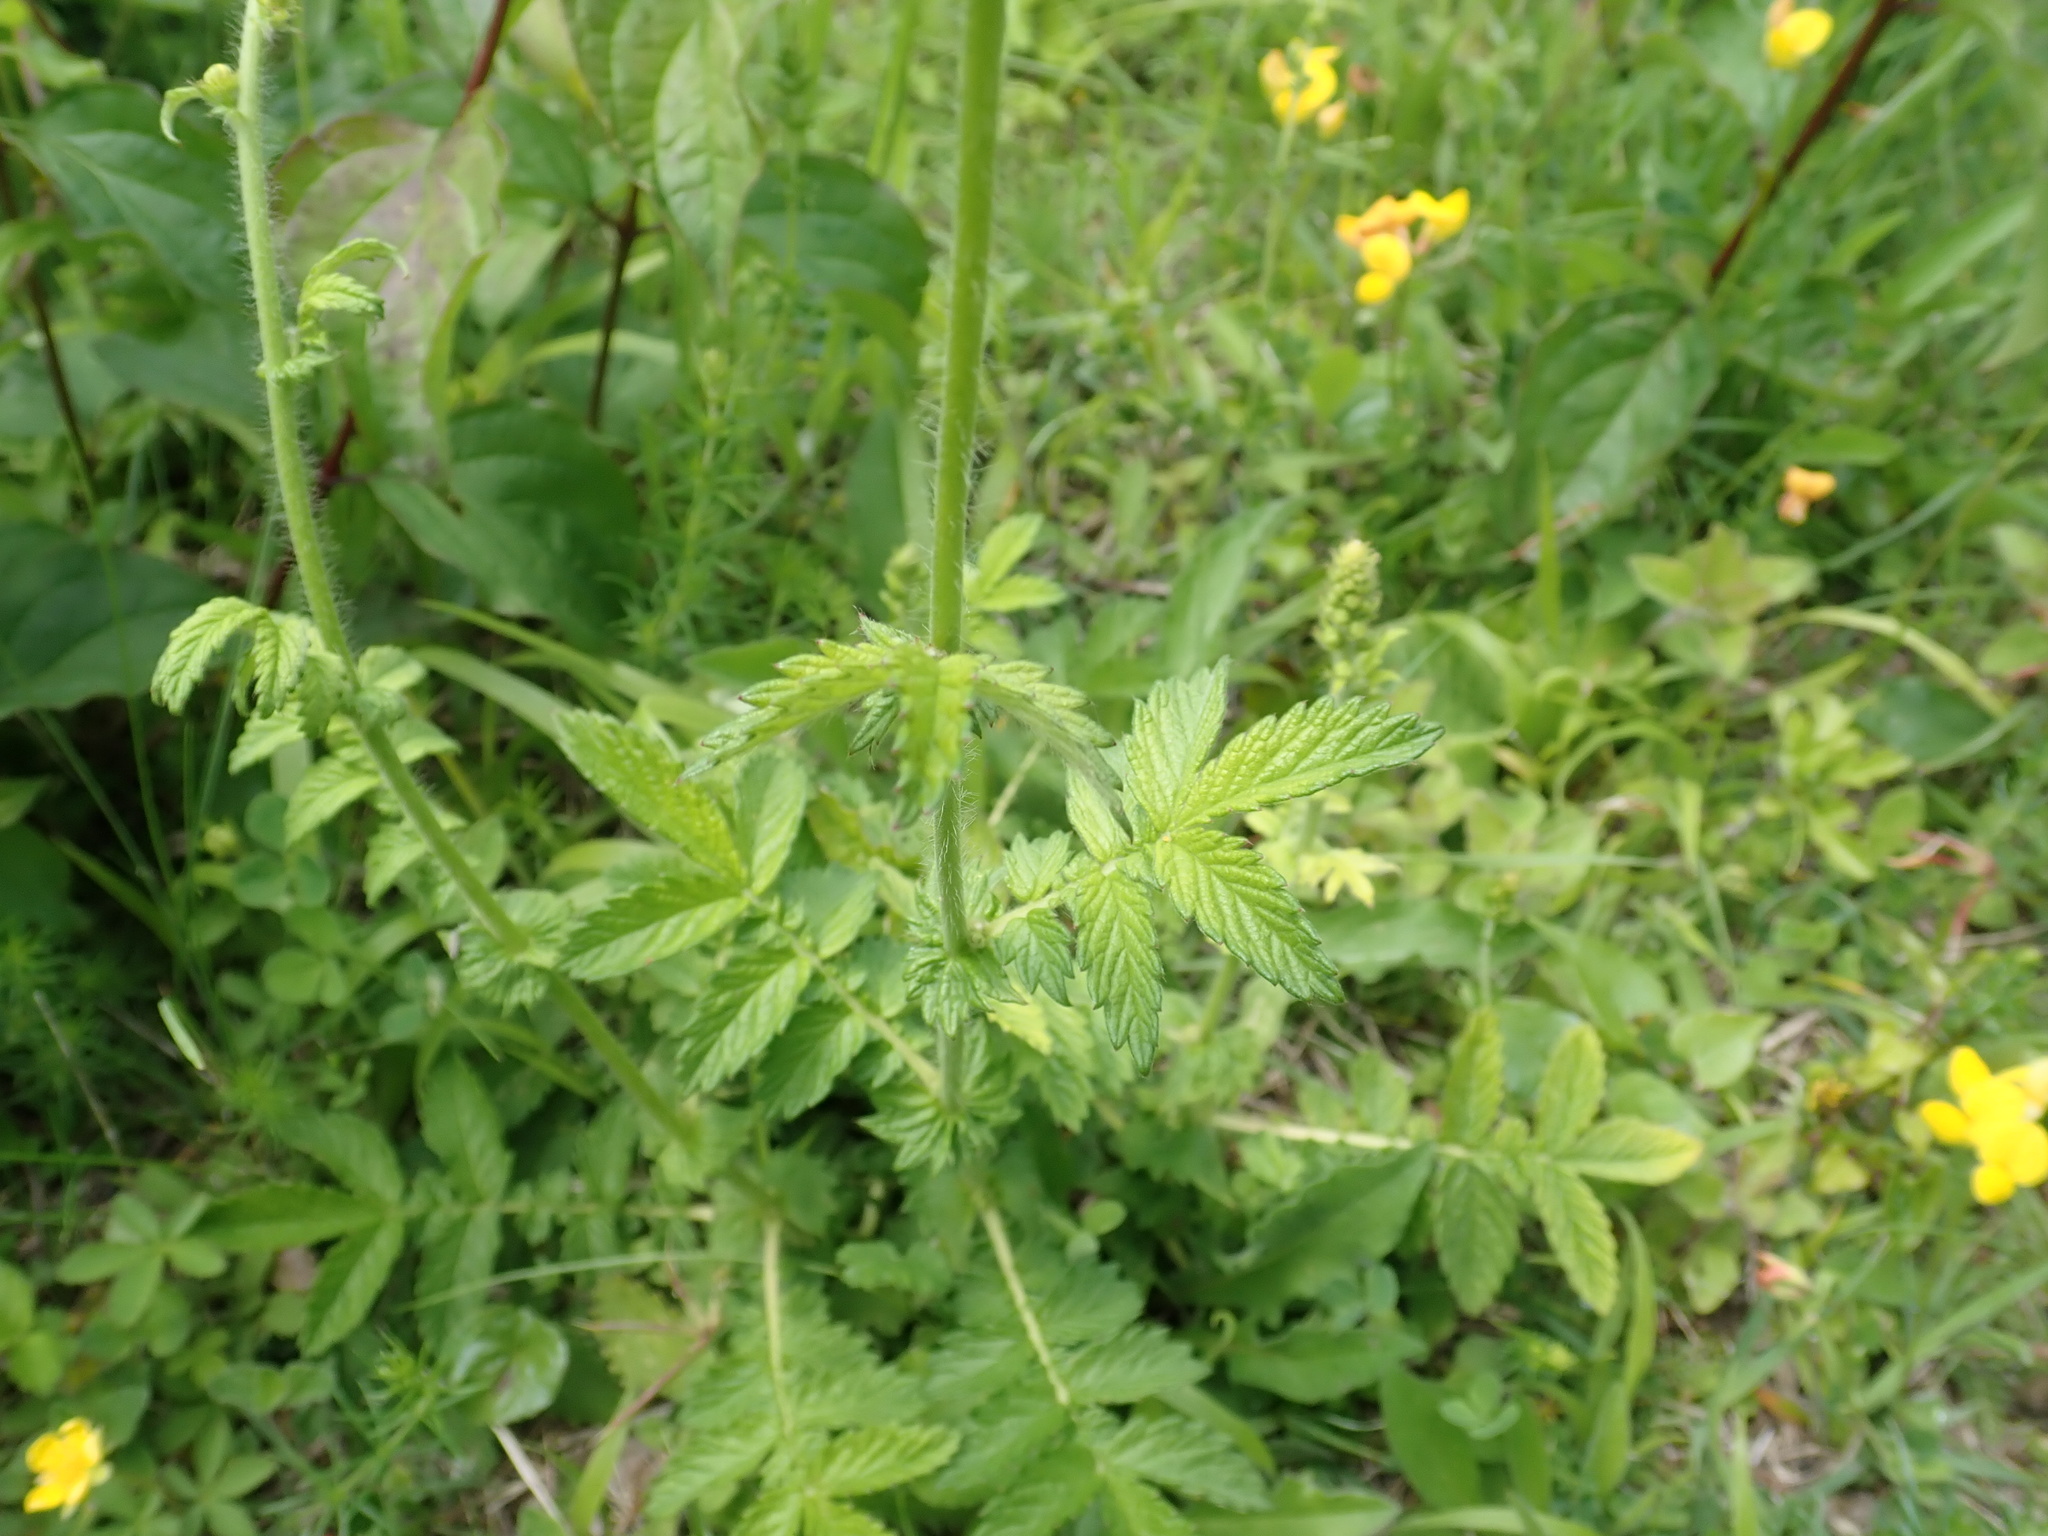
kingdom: Plantae
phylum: Tracheophyta
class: Magnoliopsida
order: Rosales
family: Rosaceae
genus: Agrimonia
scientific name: Agrimonia eupatoria
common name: Agrimony
